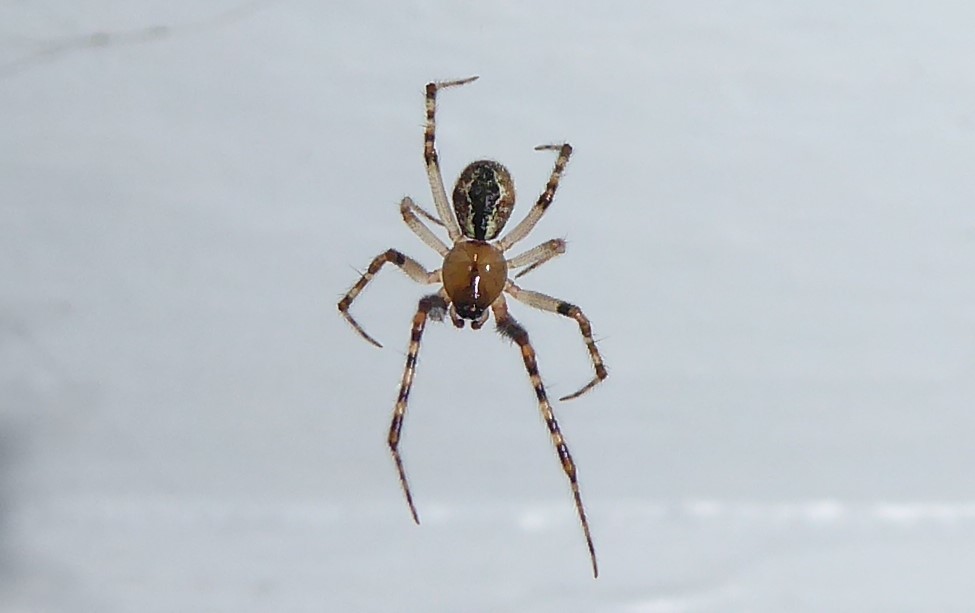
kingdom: Animalia
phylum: Arthropoda
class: Arachnida
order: Araneae
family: Theridiidae
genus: Cryptachaea
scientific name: Cryptachaea veruculata
